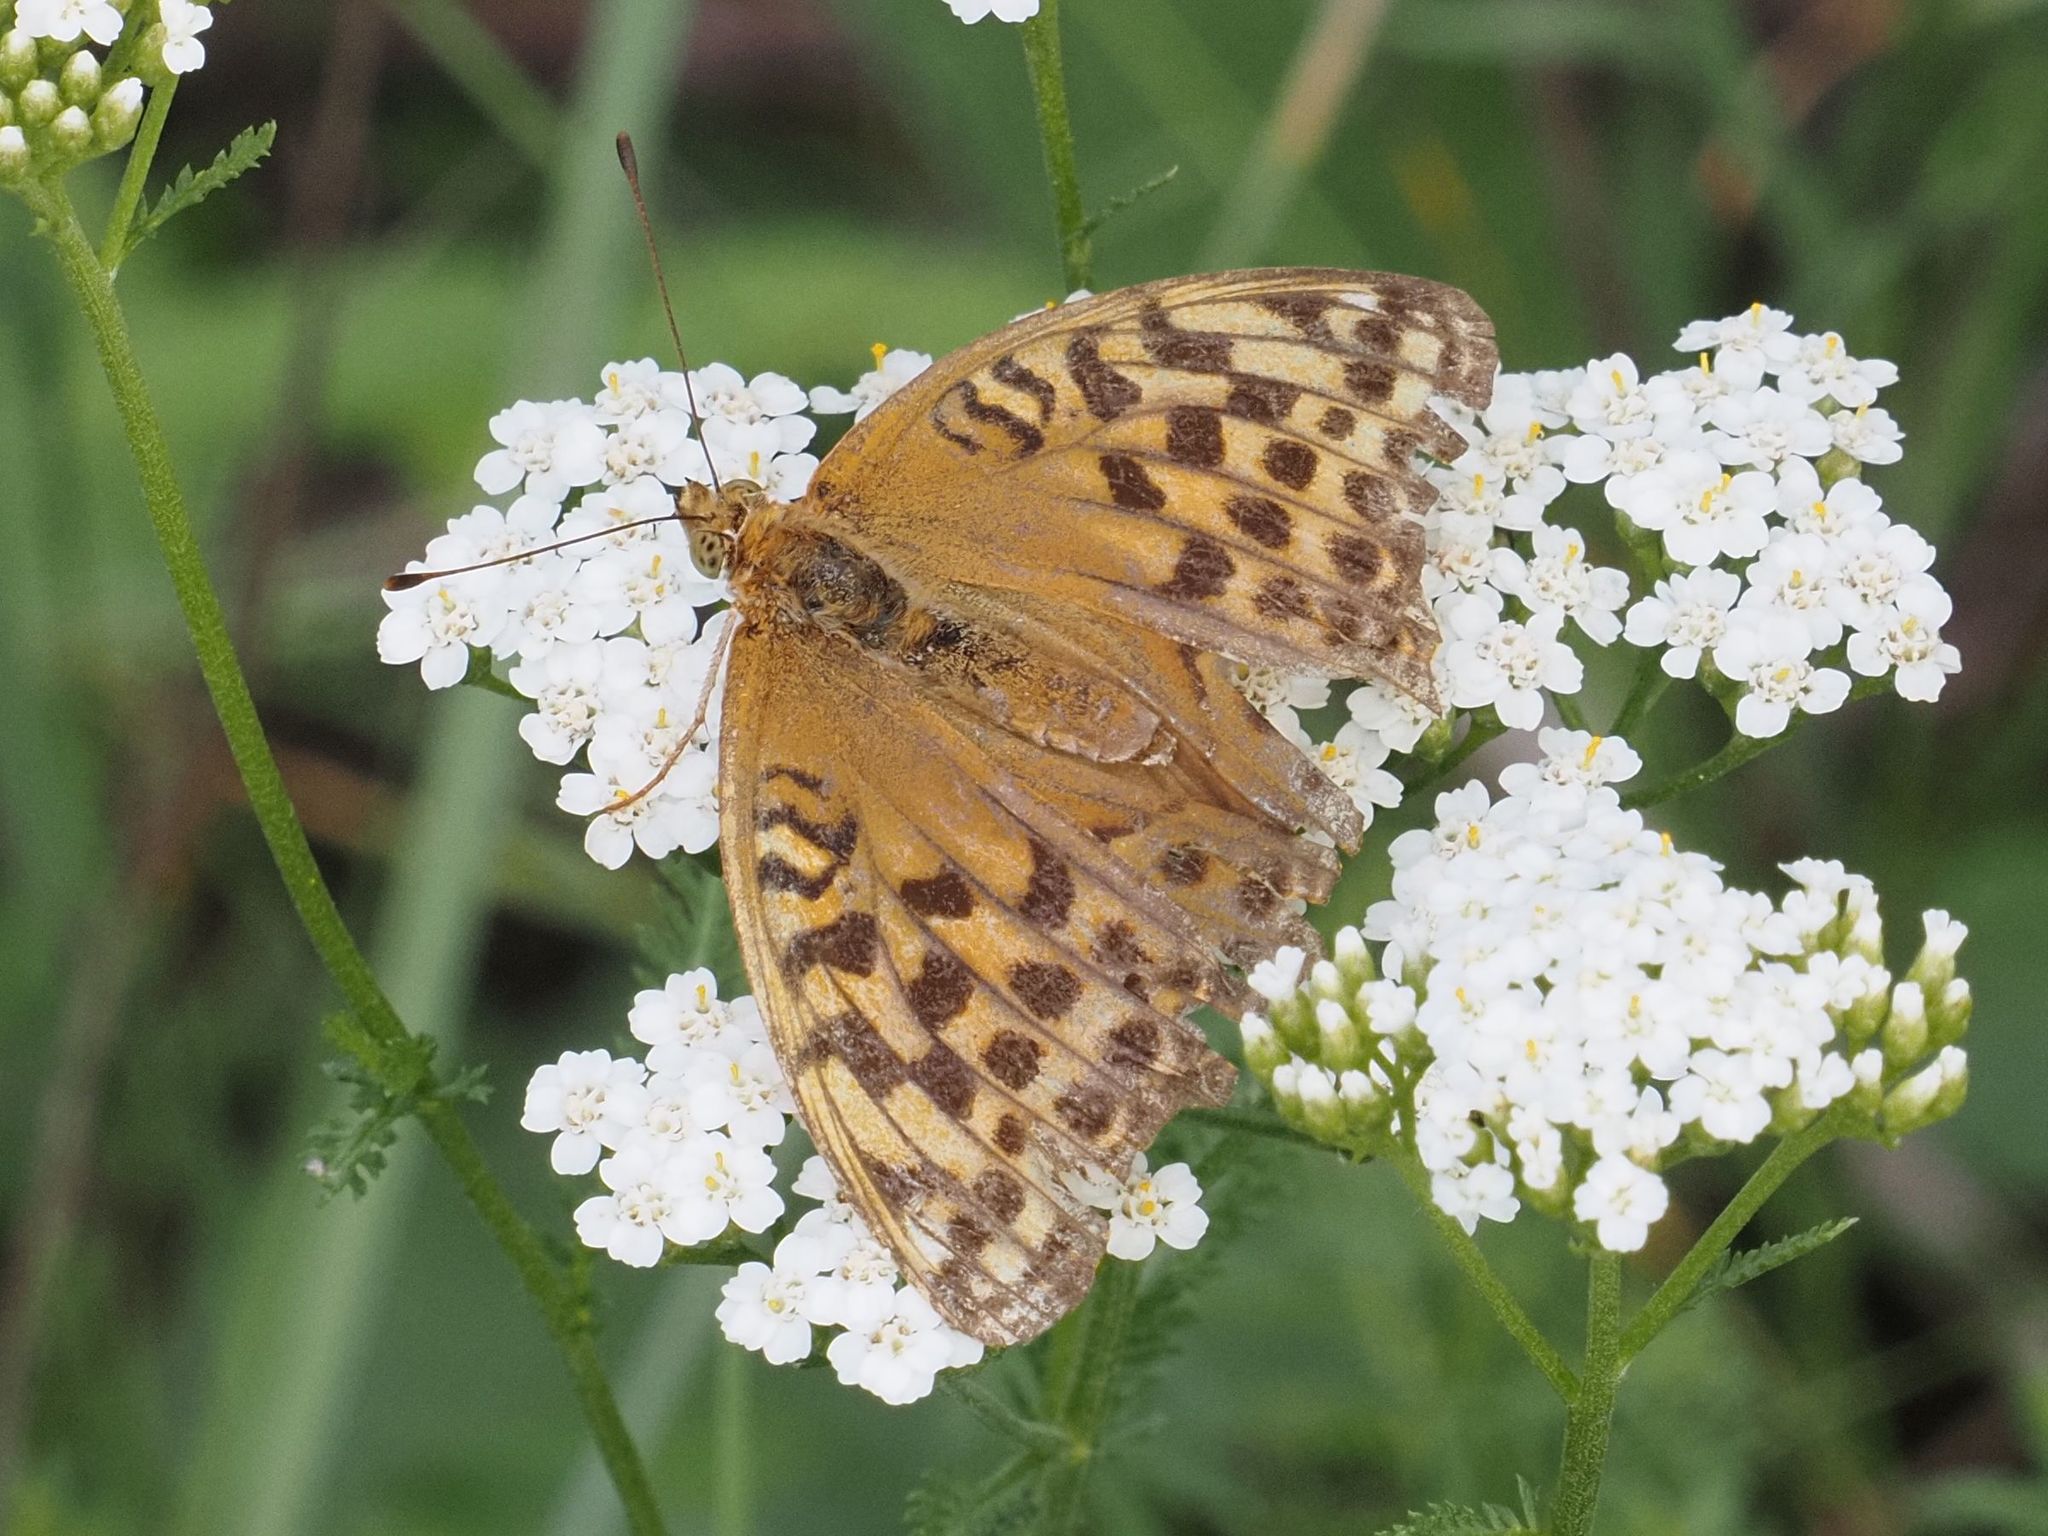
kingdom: Animalia
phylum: Arthropoda
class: Insecta
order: Lepidoptera
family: Nymphalidae
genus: Argynnis
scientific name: Argynnis paphia
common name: Silver-washed fritillary
